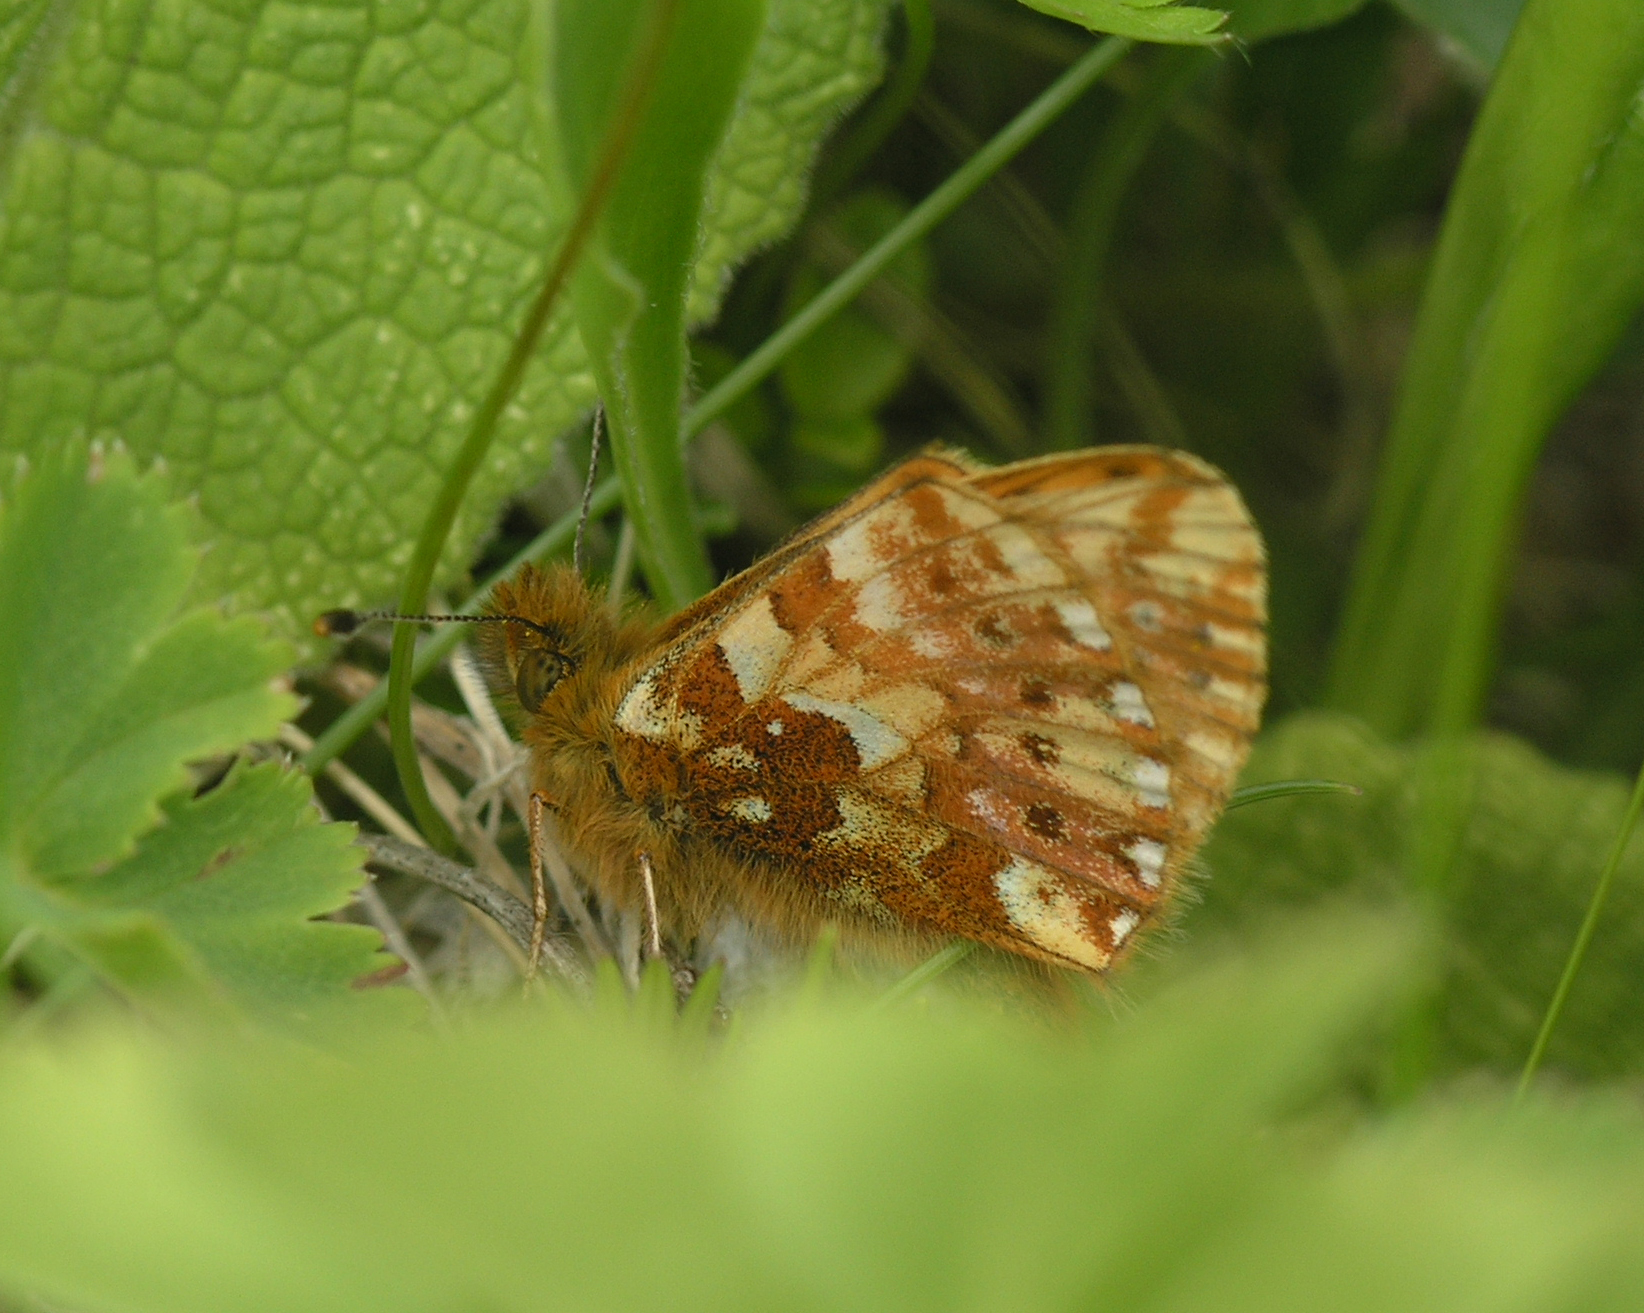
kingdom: Animalia
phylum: Arthropoda
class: Insecta
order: Lepidoptera
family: Nymphalidae
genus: Boloria
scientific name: Boloria caucasica
